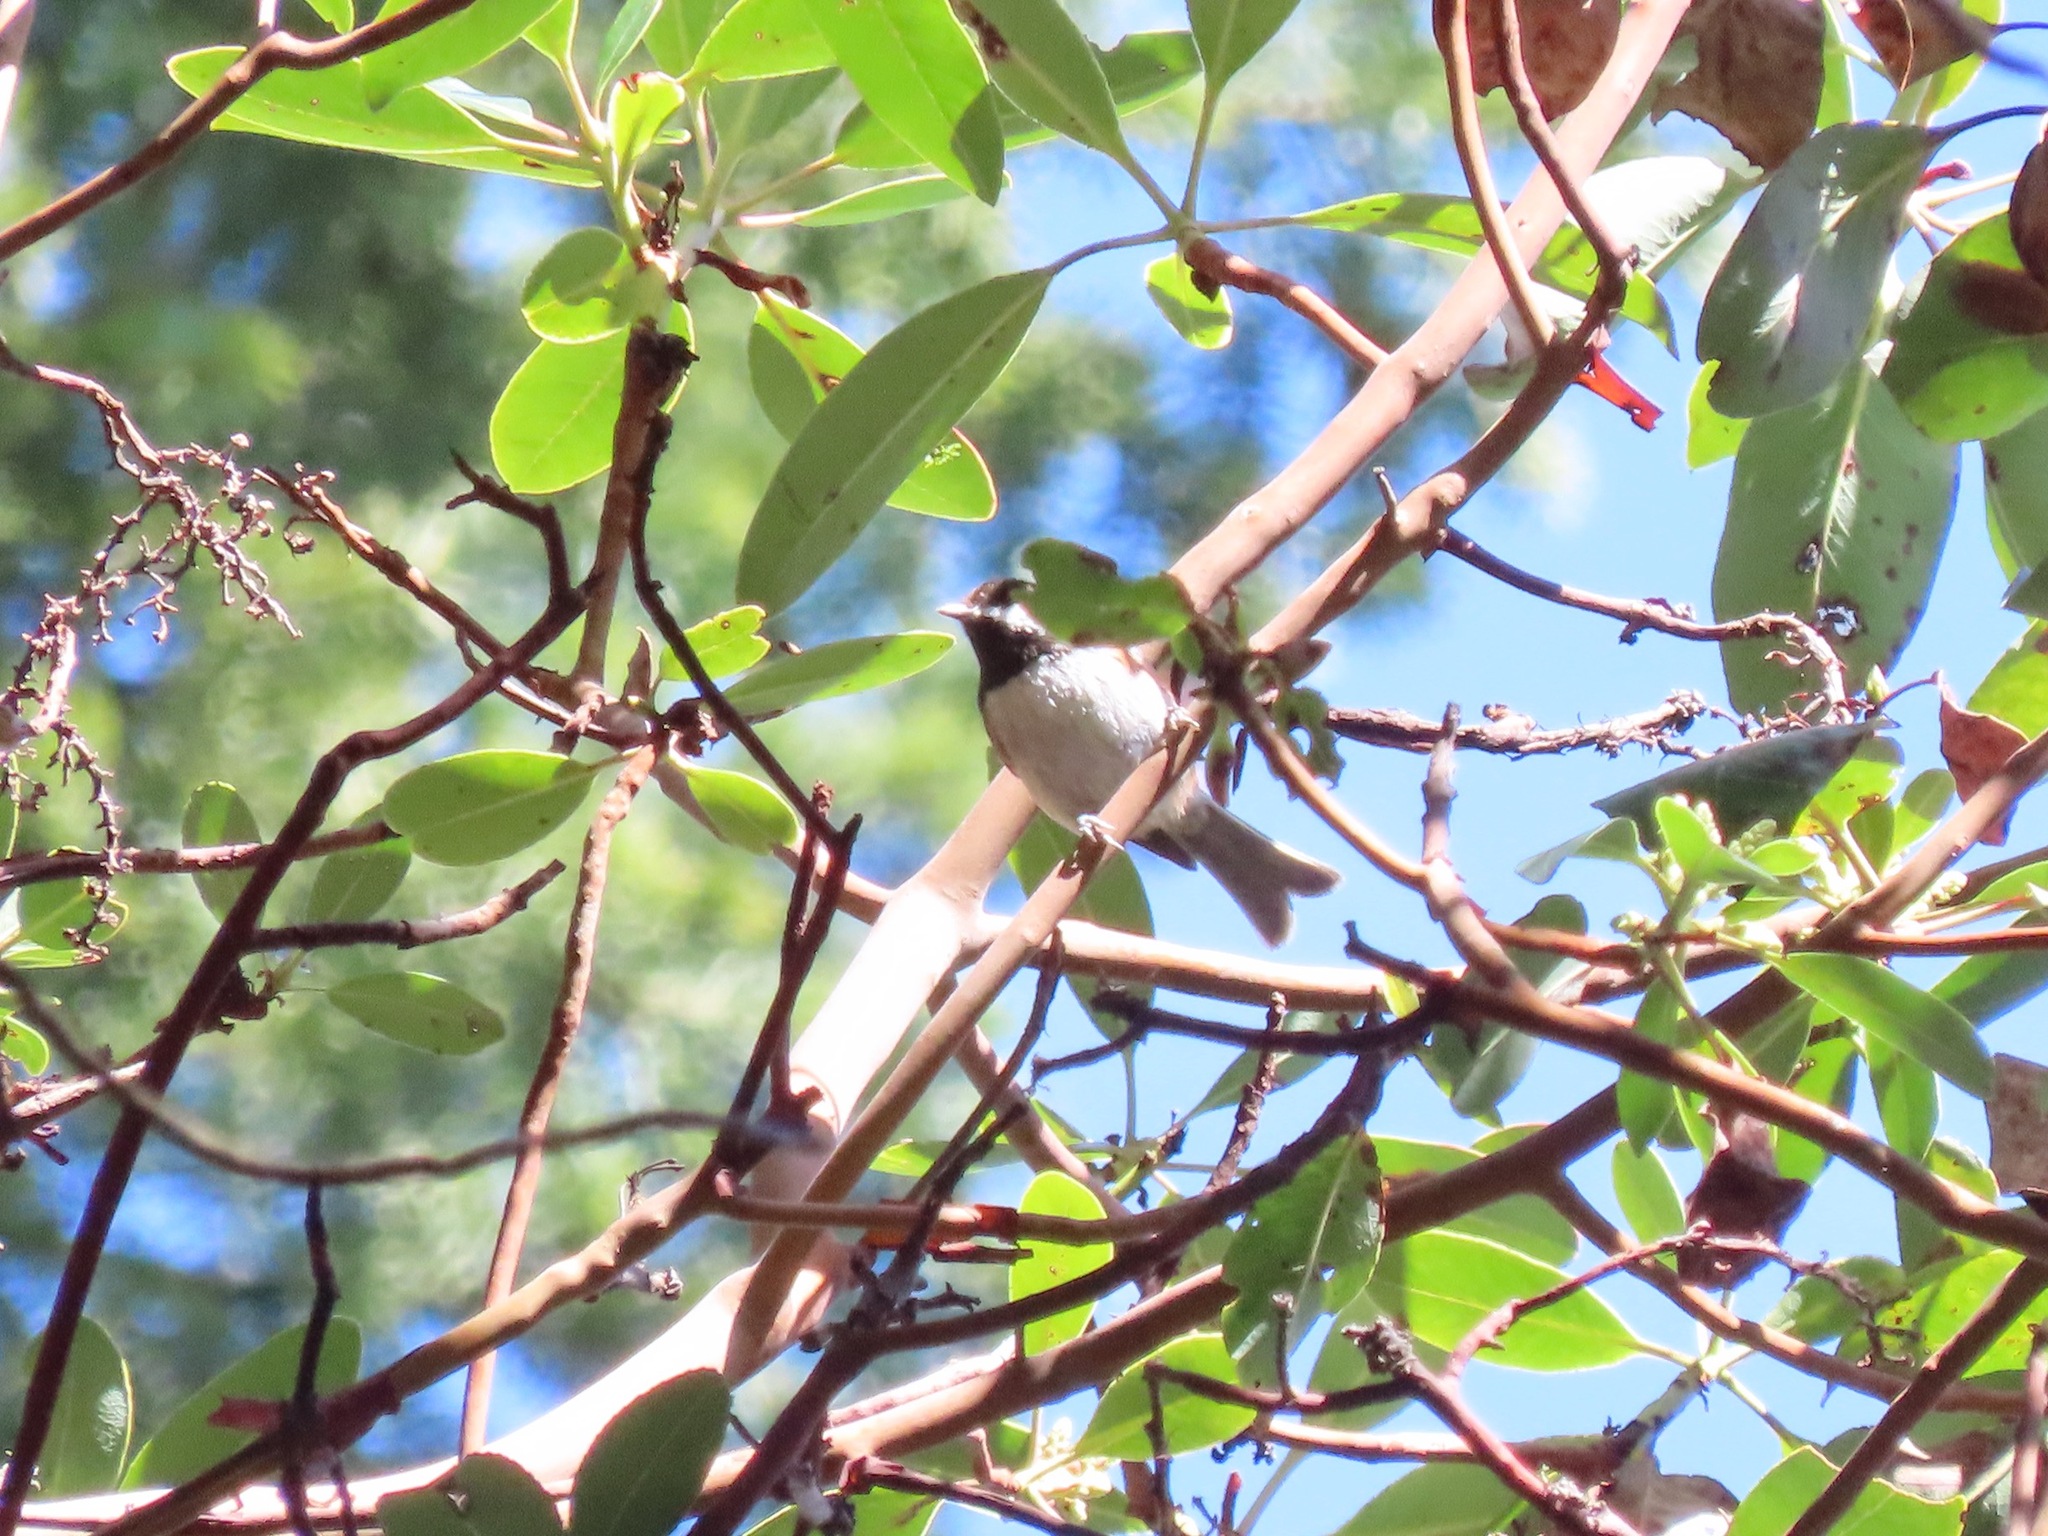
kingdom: Animalia
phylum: Chordata
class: Aves
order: Passeriformes
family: Paridae
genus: Poecile
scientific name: Poecile rufescens
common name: Chestnut-backed chickadee
